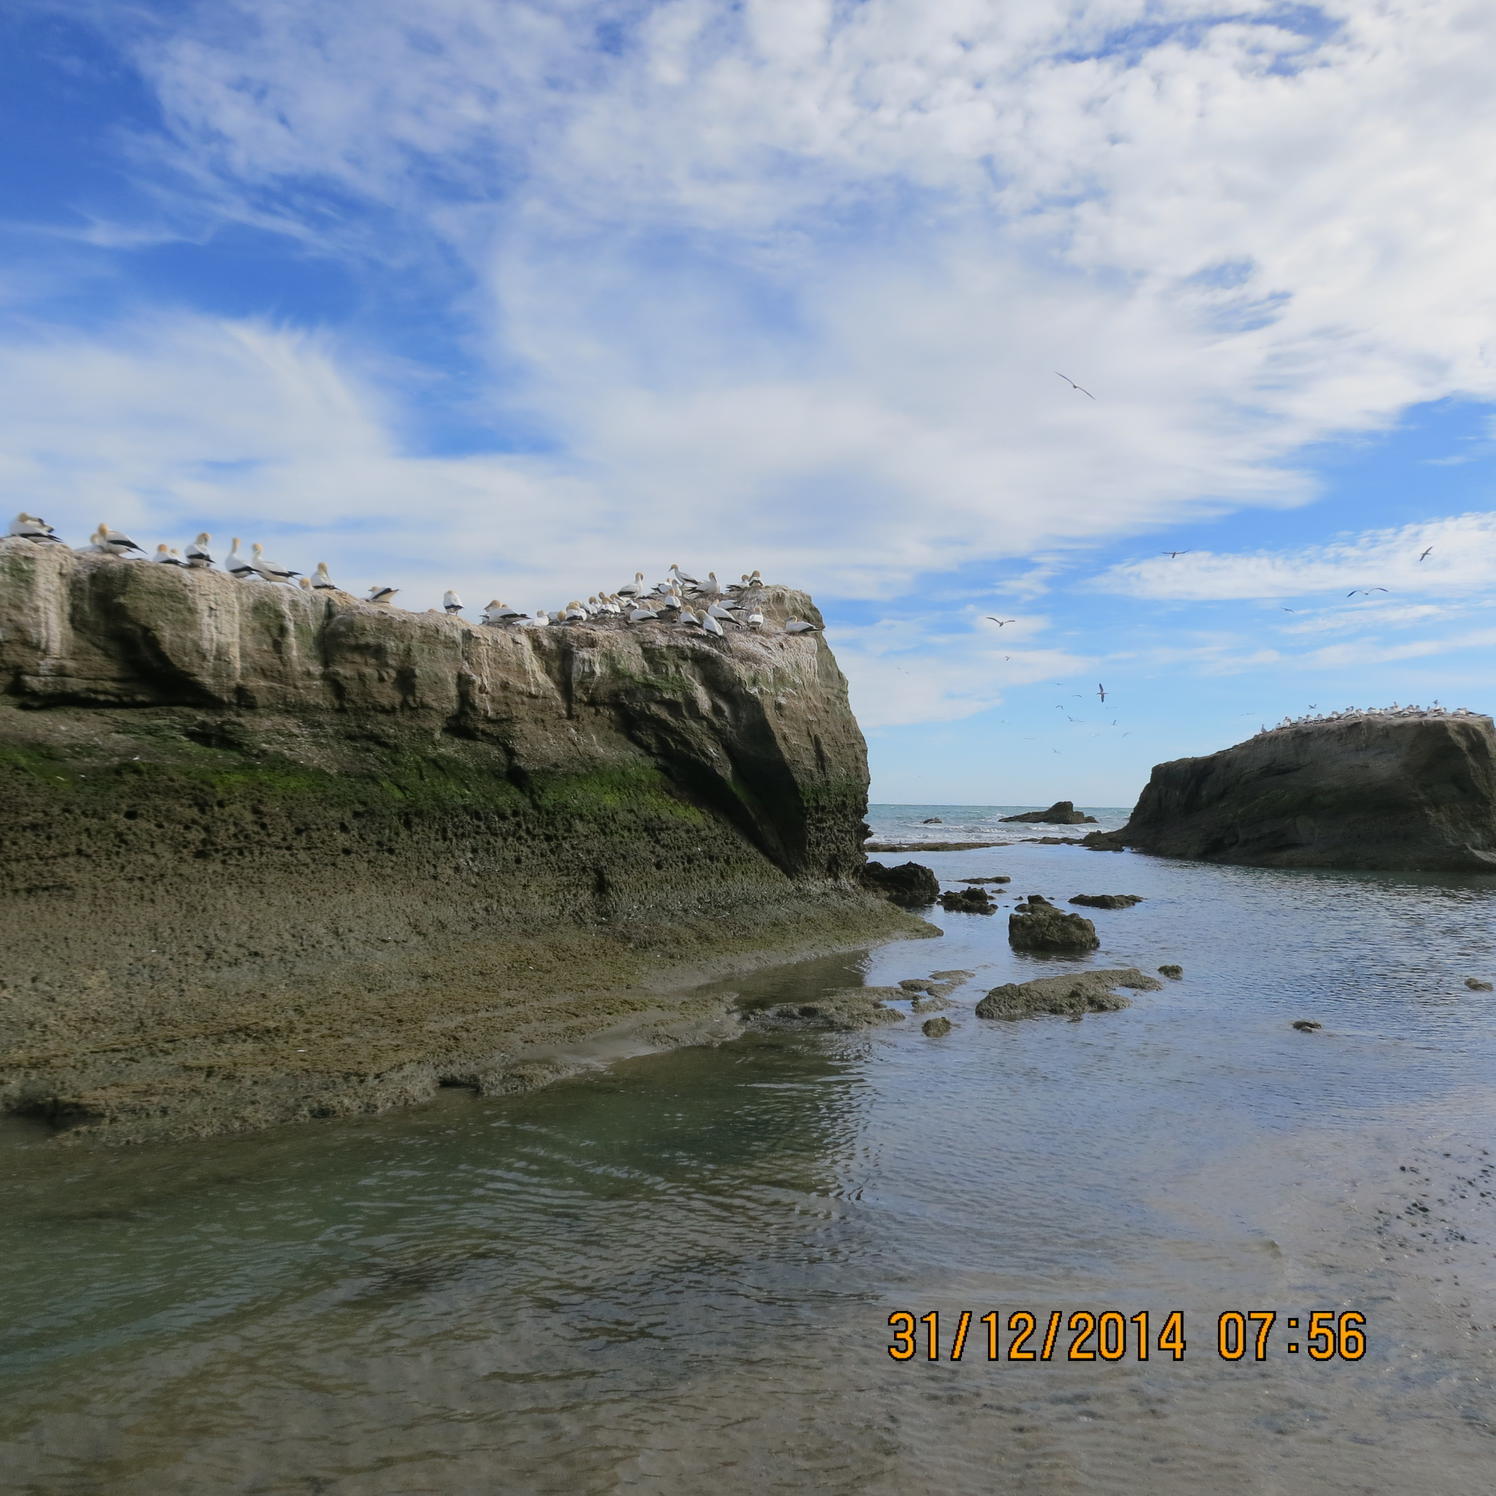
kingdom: Animalia
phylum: Chordata
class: Aves
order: Suliformes
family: Sulidae
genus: Morus
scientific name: Morus serrator
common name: Australasian gannet
